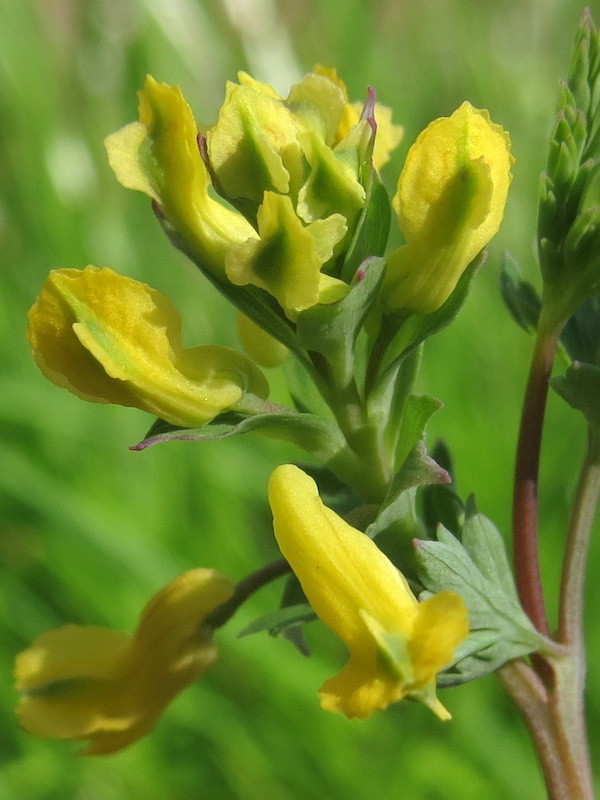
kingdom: Plantae
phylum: Tracheophyta
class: Magnoliopsida
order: Ranunculales
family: Papaveraceae
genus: Corydalis
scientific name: Corydalis flavula
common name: Yellow corydalis
